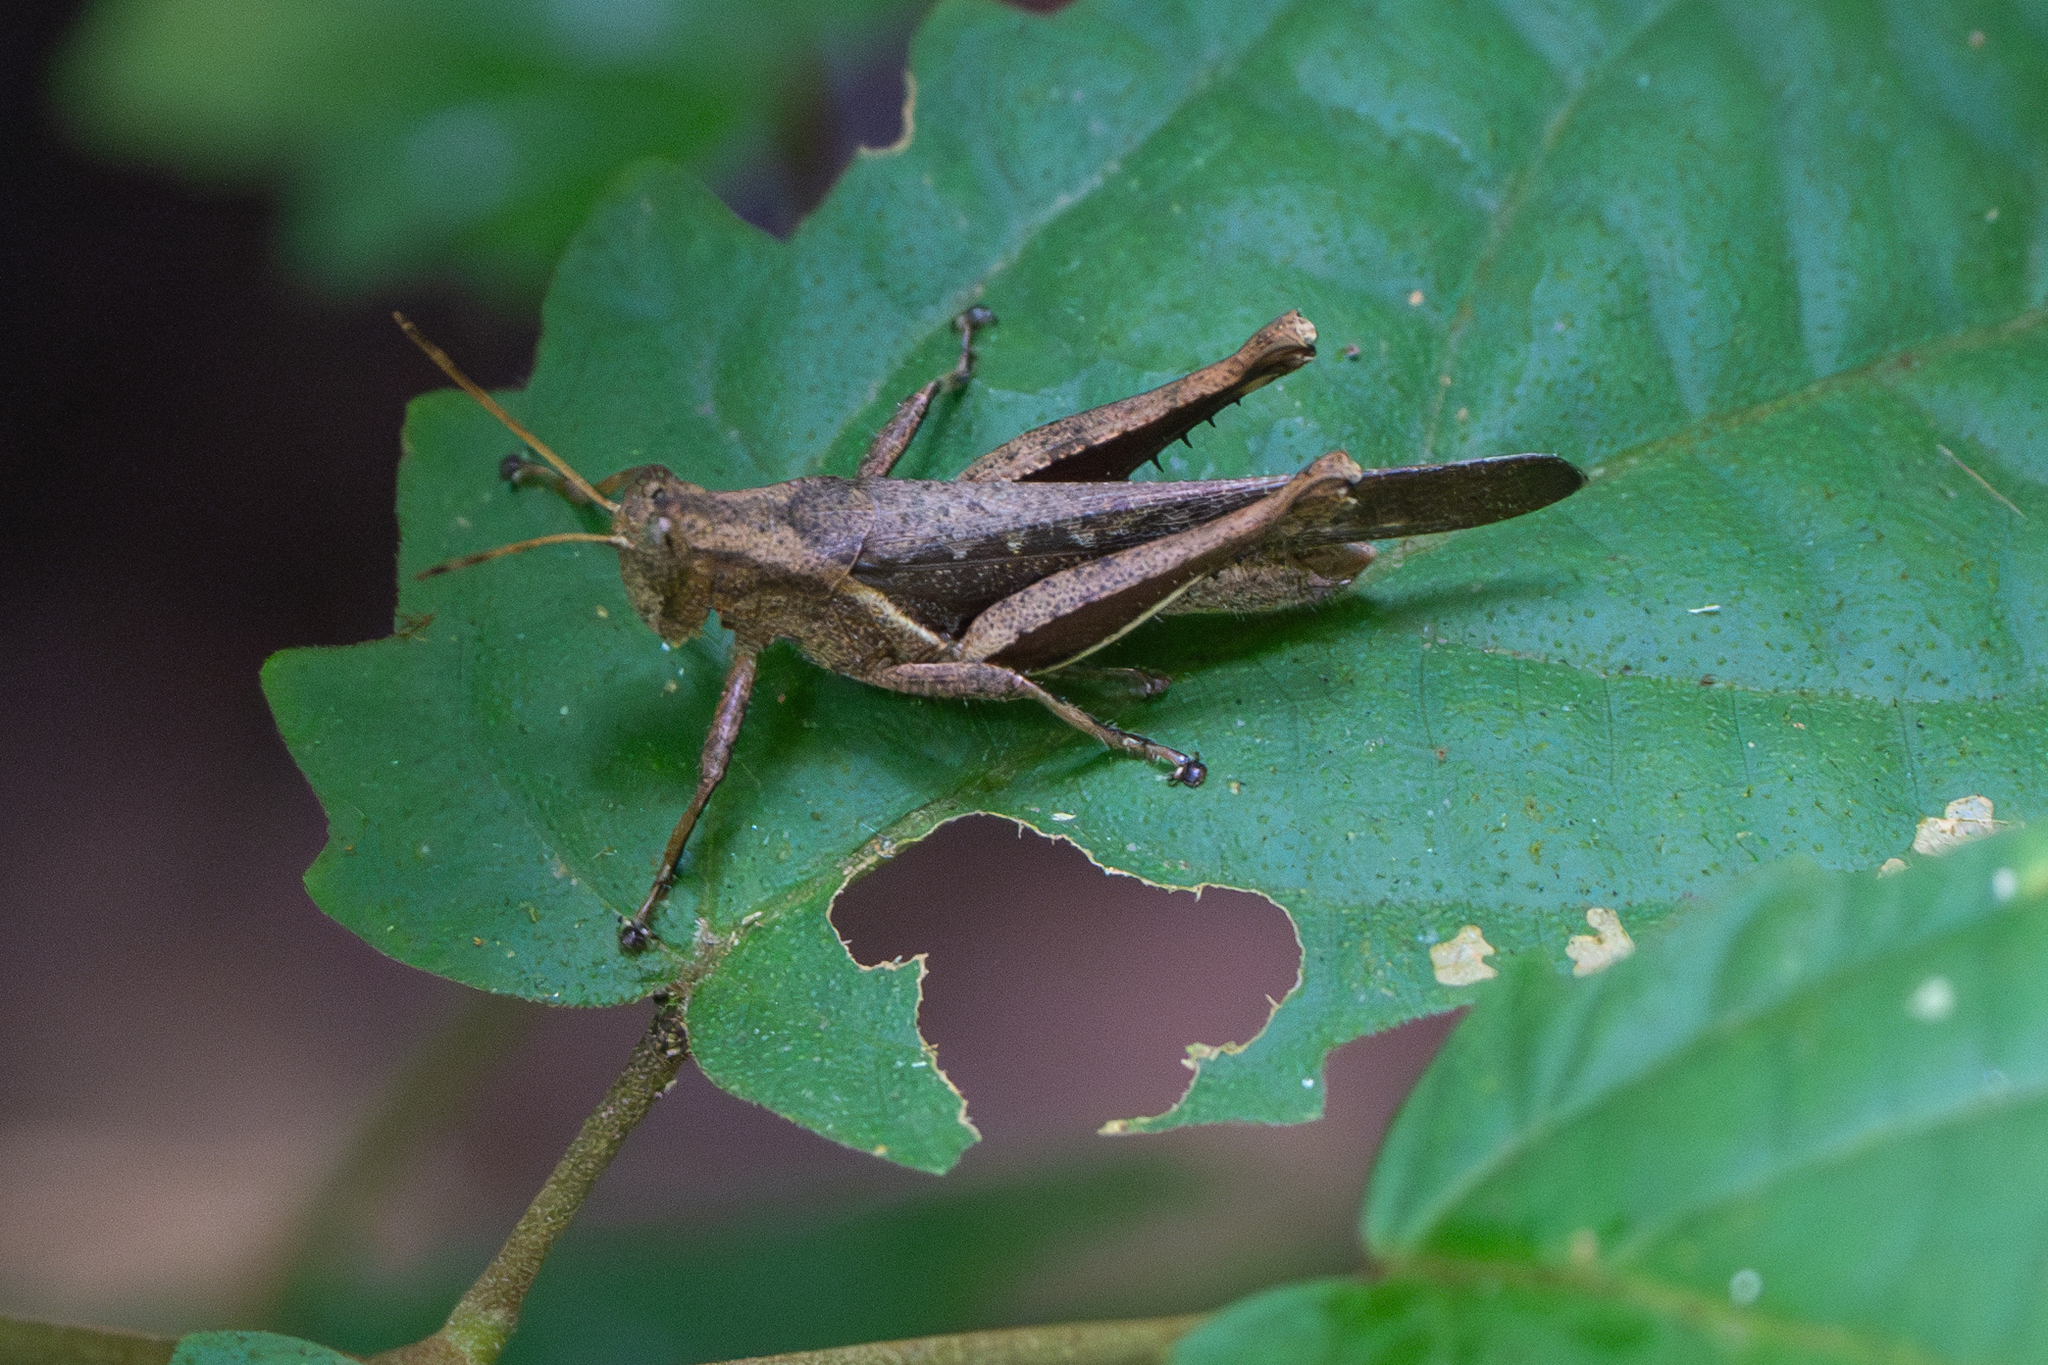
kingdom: Animalia
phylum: Arthropoda
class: Insecta
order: Orthoptera
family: Acrididae
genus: Abracris
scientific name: Abracris flavolineata
